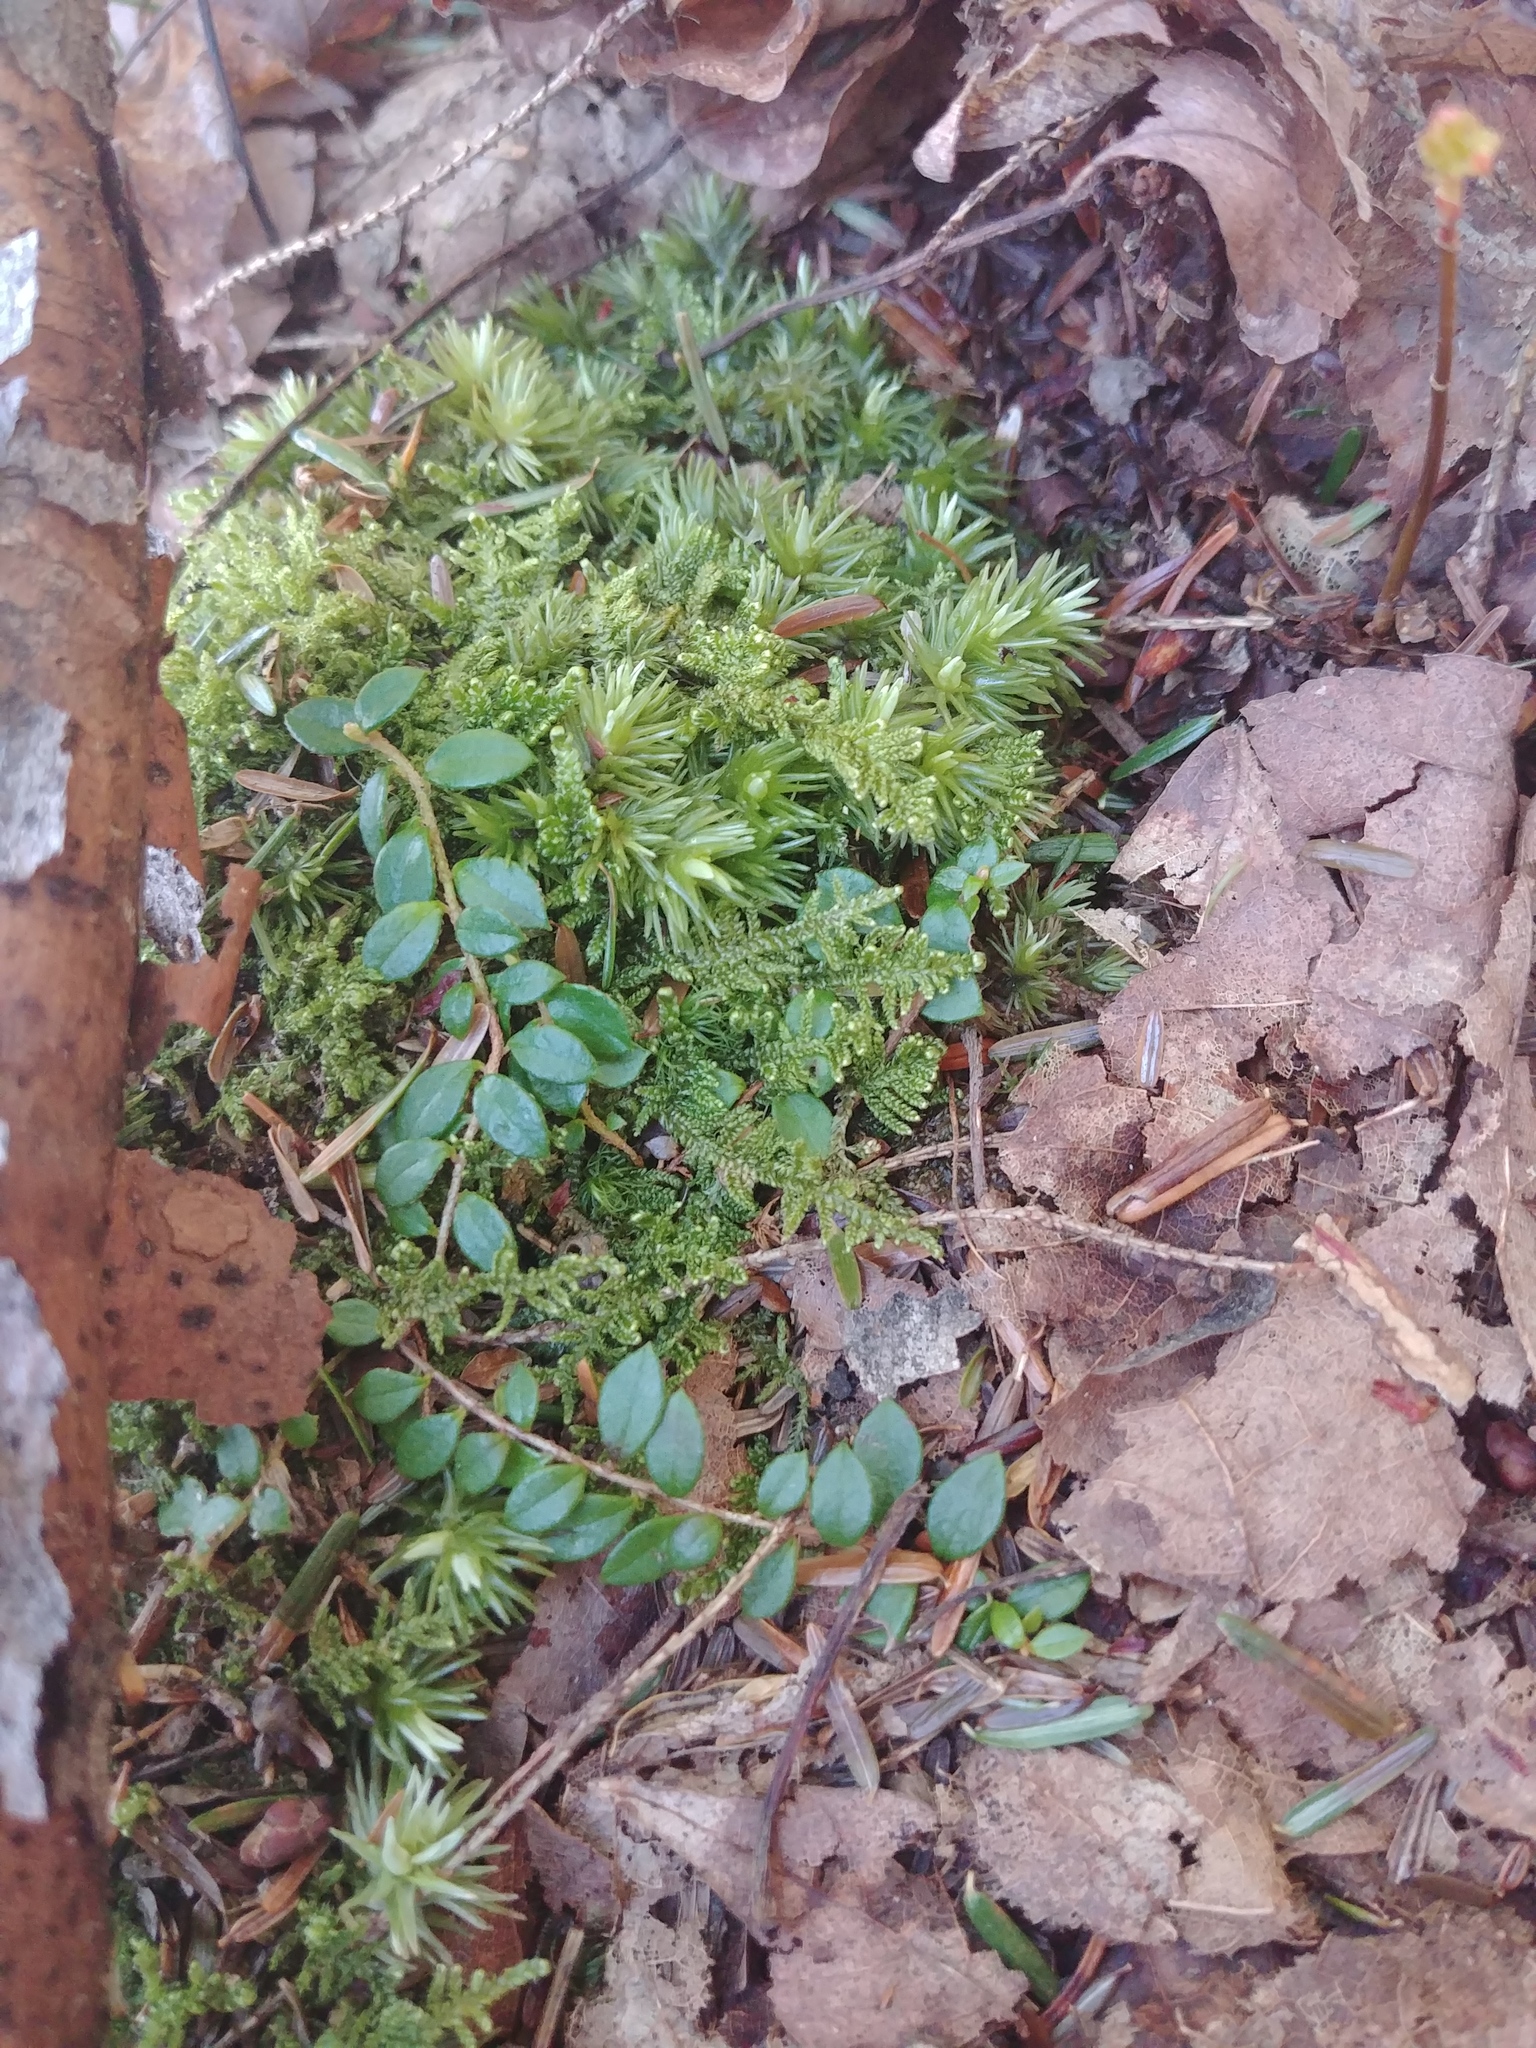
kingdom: Plantae
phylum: Tracheophyta
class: Magnoliopsida
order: Ericales
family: Ericaceae
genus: Gaultheria
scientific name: Gaultheria hispidula
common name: Cancer wintergreen
